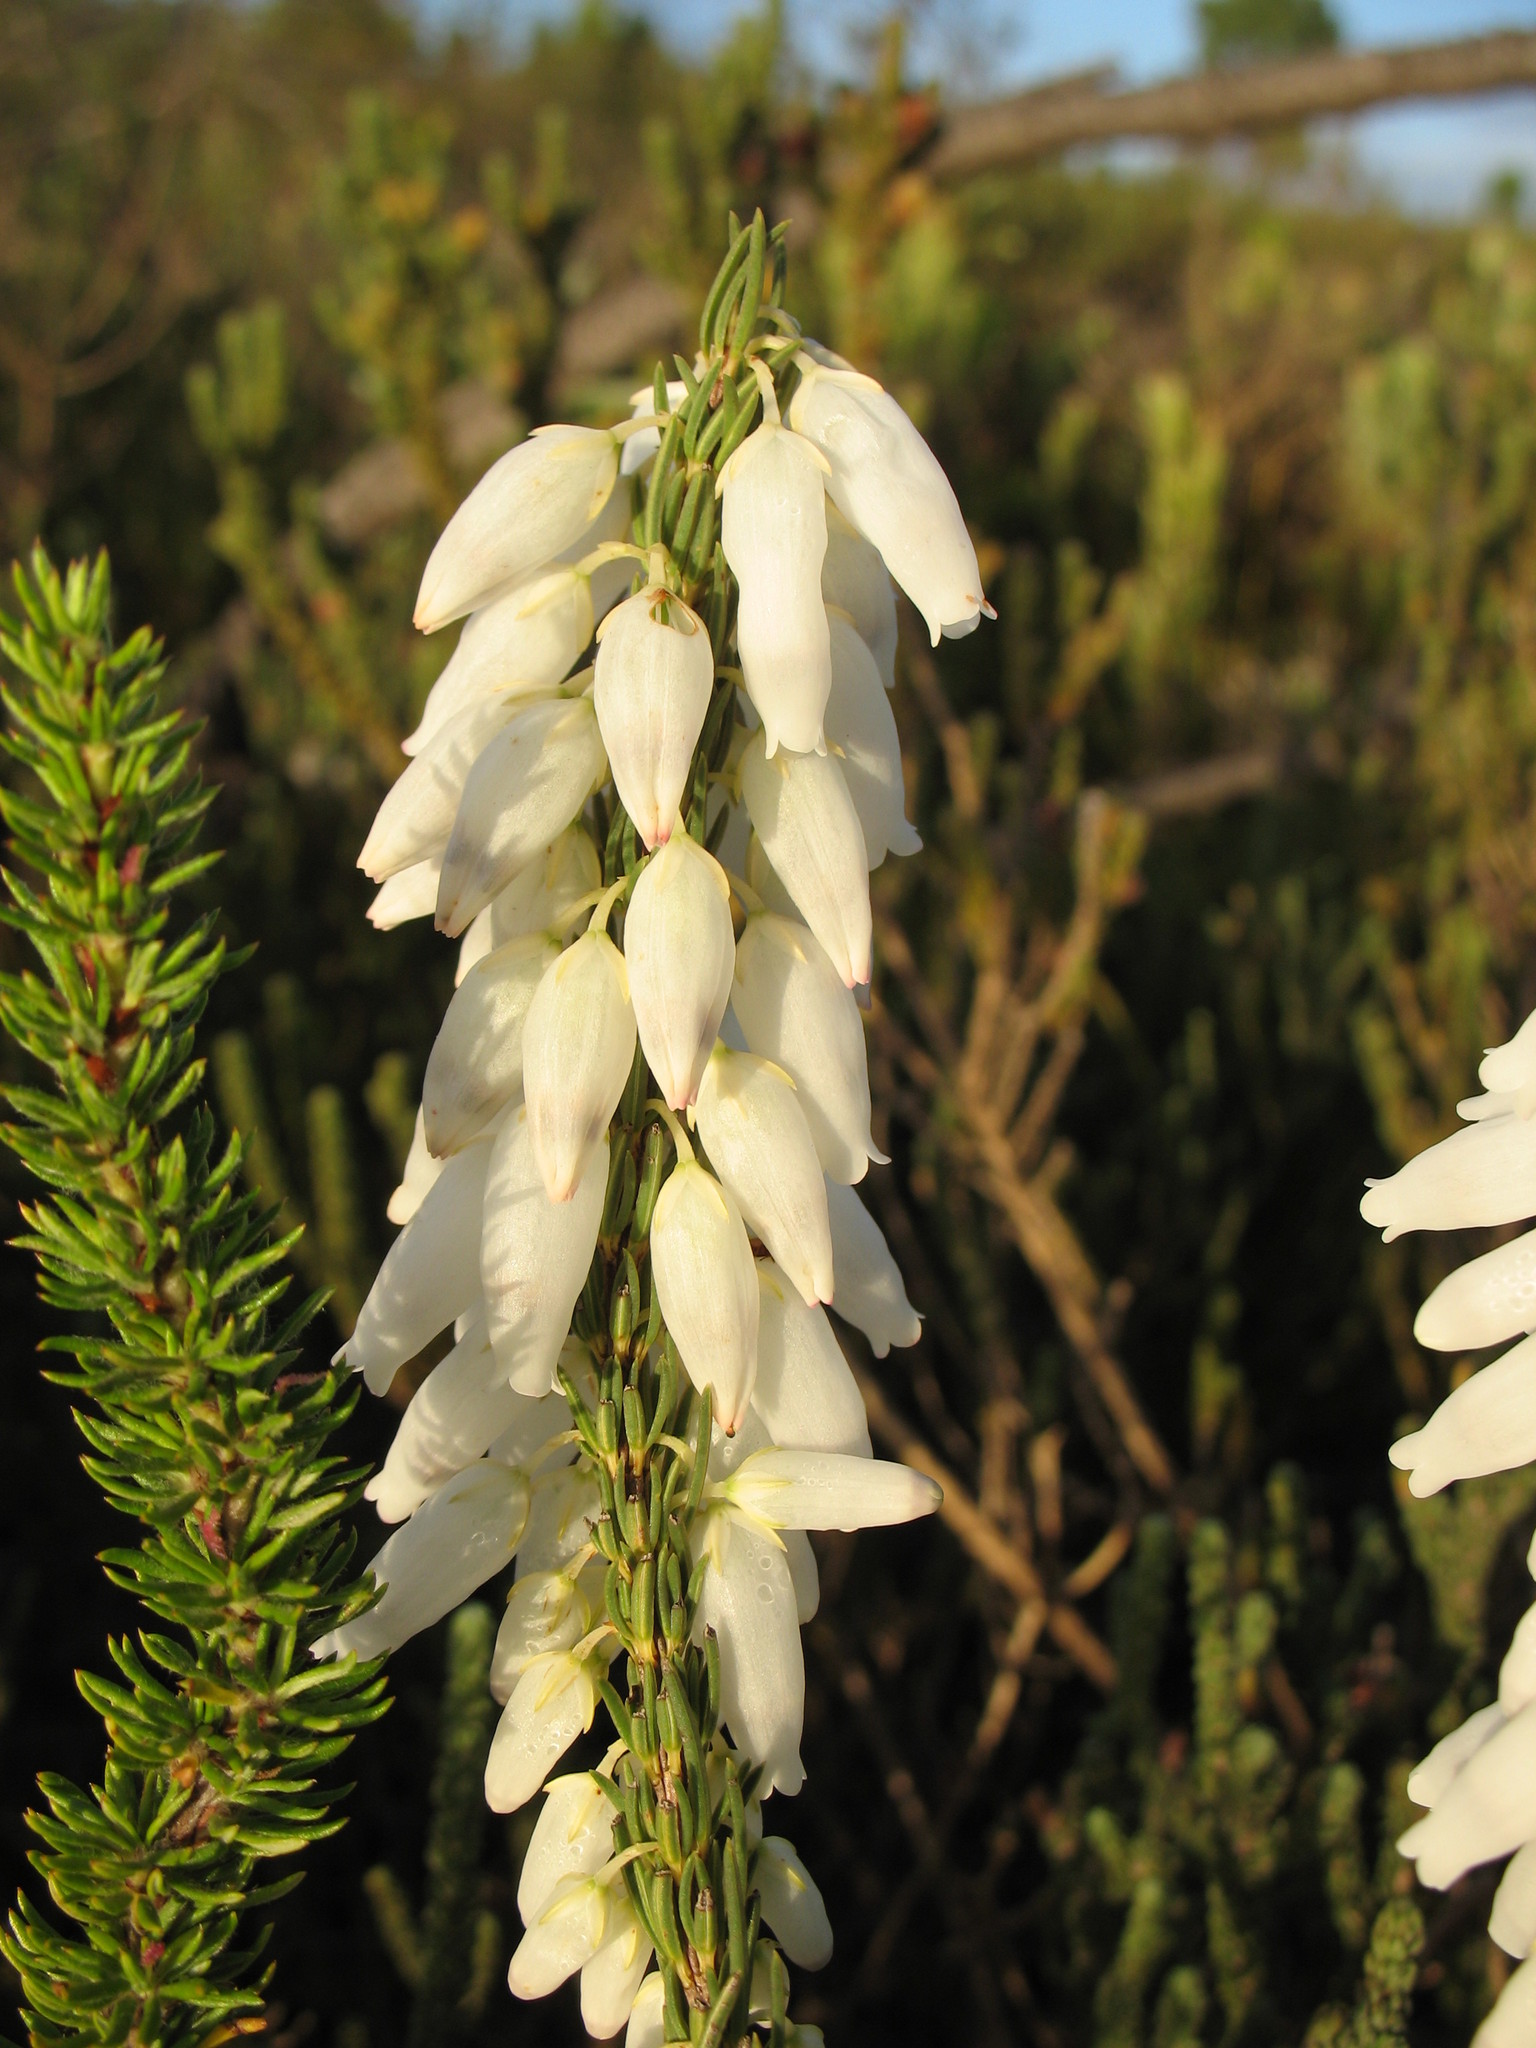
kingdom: Plantae
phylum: Tracheophyta
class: Magnoliopsida
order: Ericales
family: Ericaceae
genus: Erica
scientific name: Erica penduliflora
